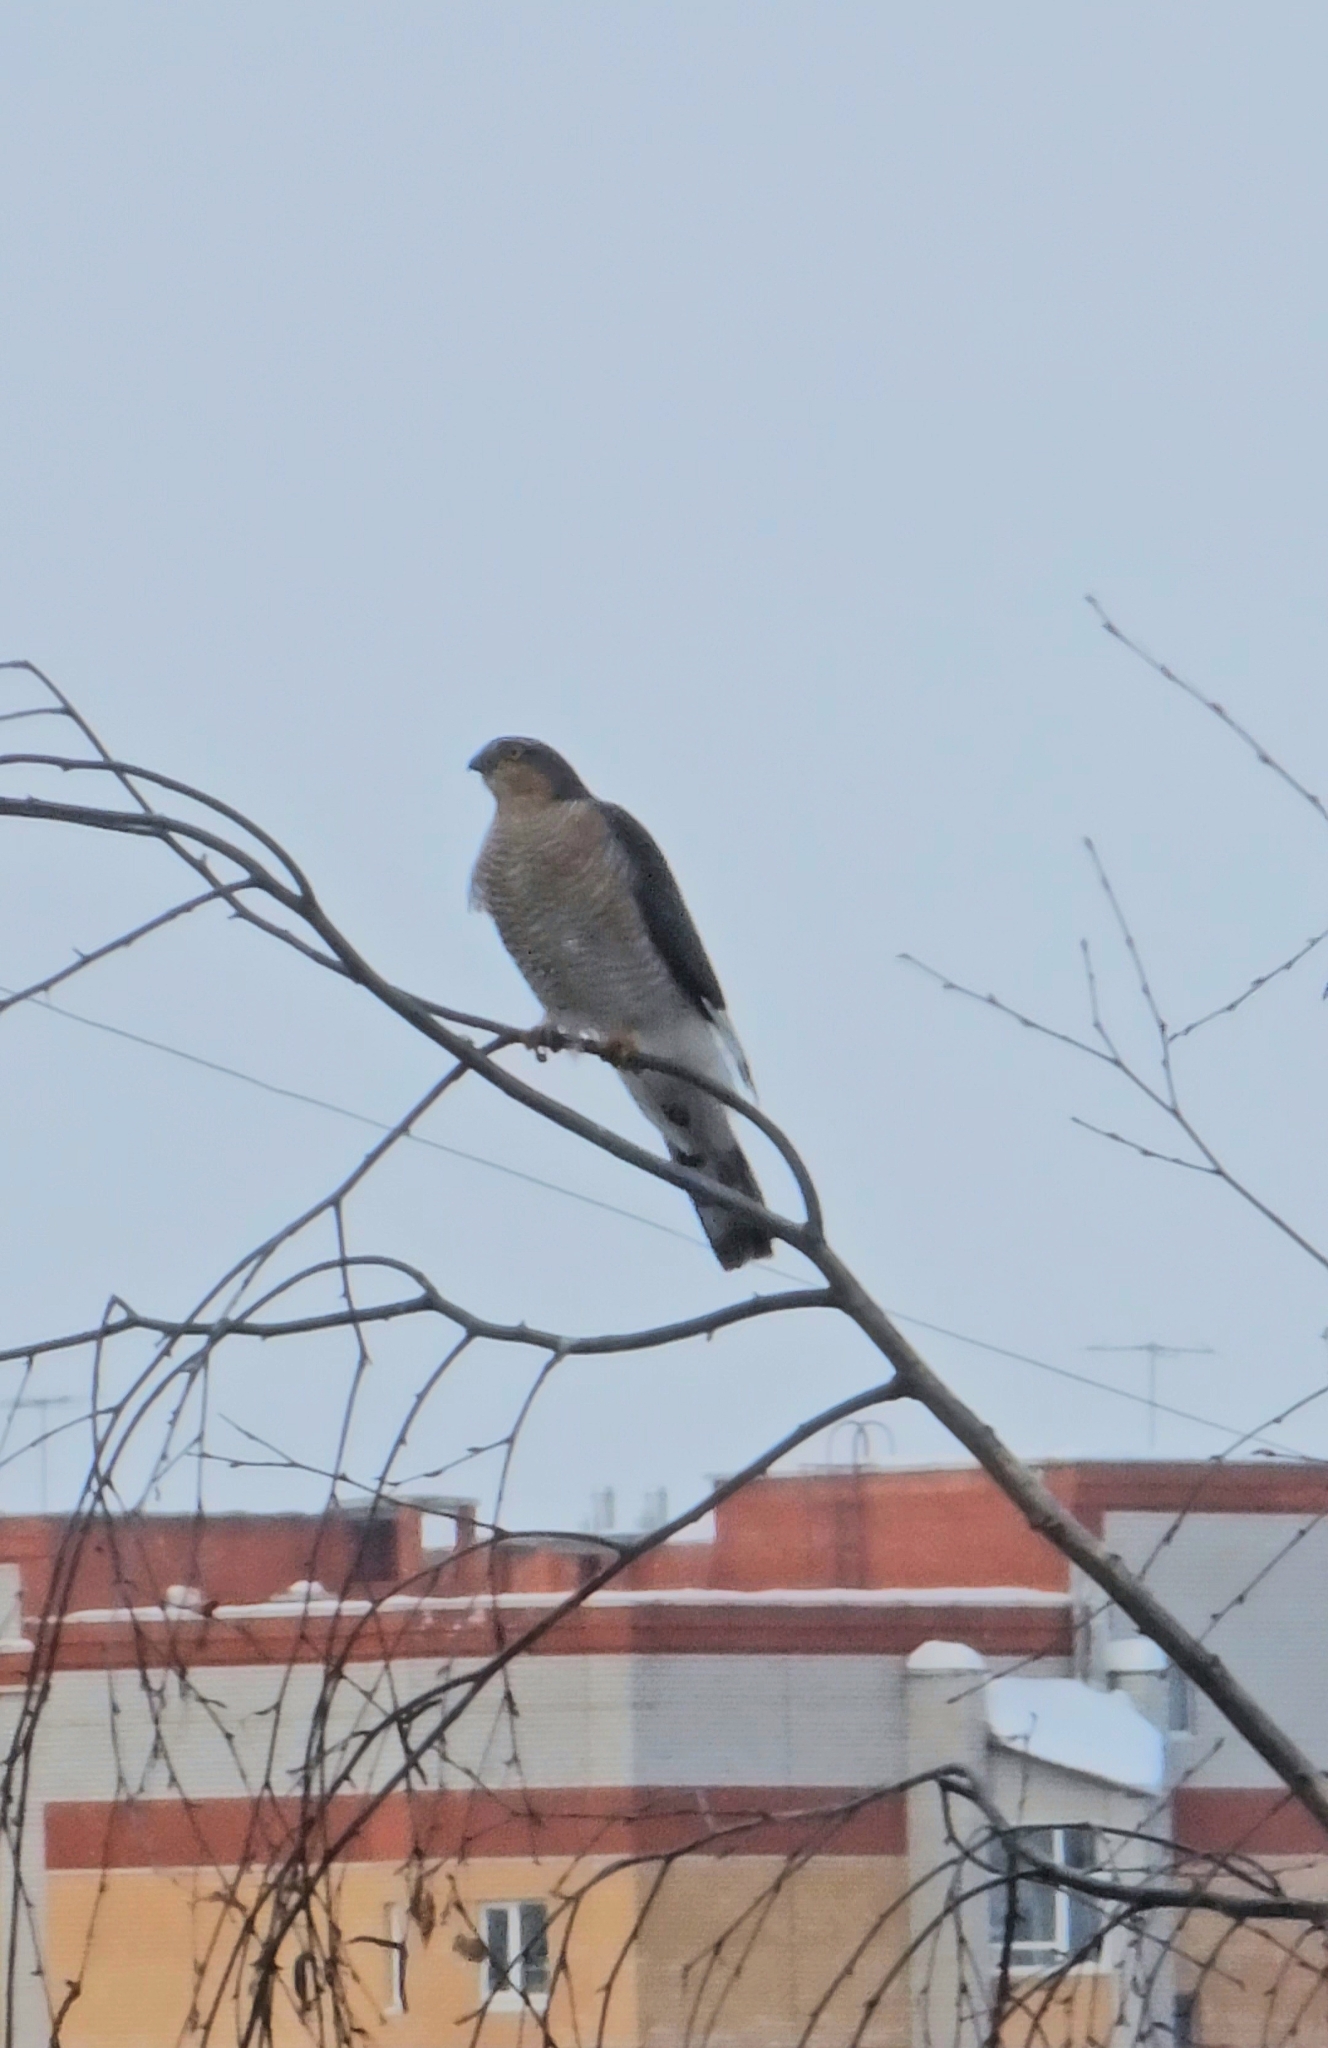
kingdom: Animalia
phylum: Chordata
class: Aves
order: Accipitriformes
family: Accipitridae
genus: Accipiter
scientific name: Accipiter nisus
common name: Eurasian sparrowhawk
